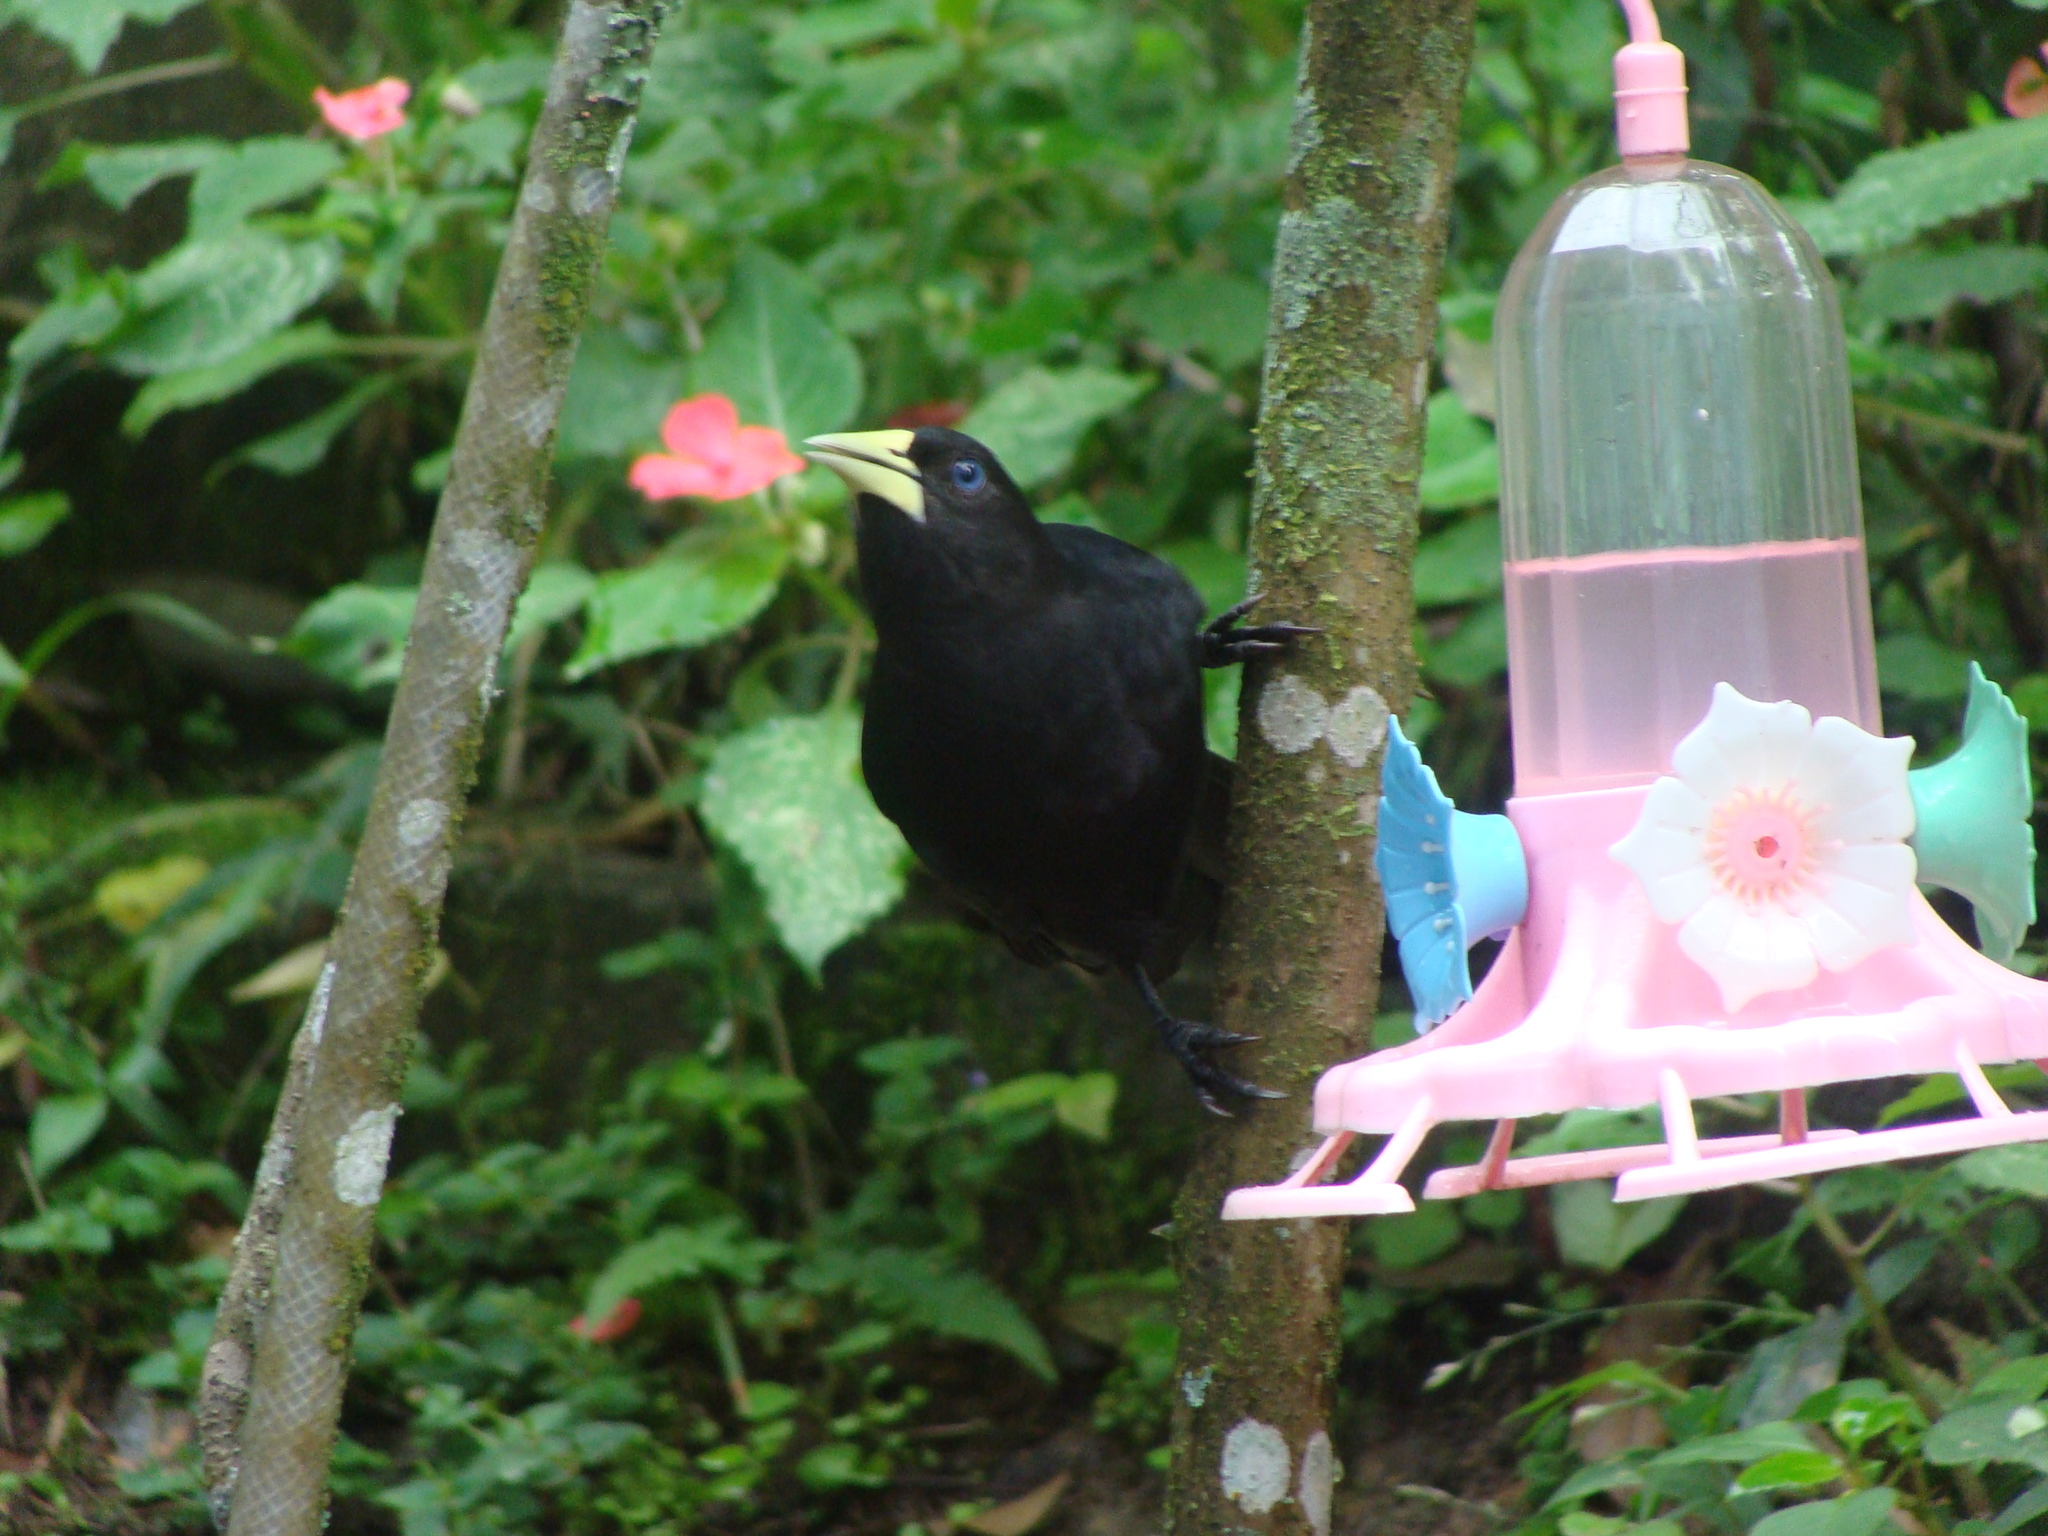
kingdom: Animalia
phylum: Chordata
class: Aves
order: Passeriformes
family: Icteridae
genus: Cacicus
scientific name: Cacicus haemorrhous
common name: Red-rumped cacique
